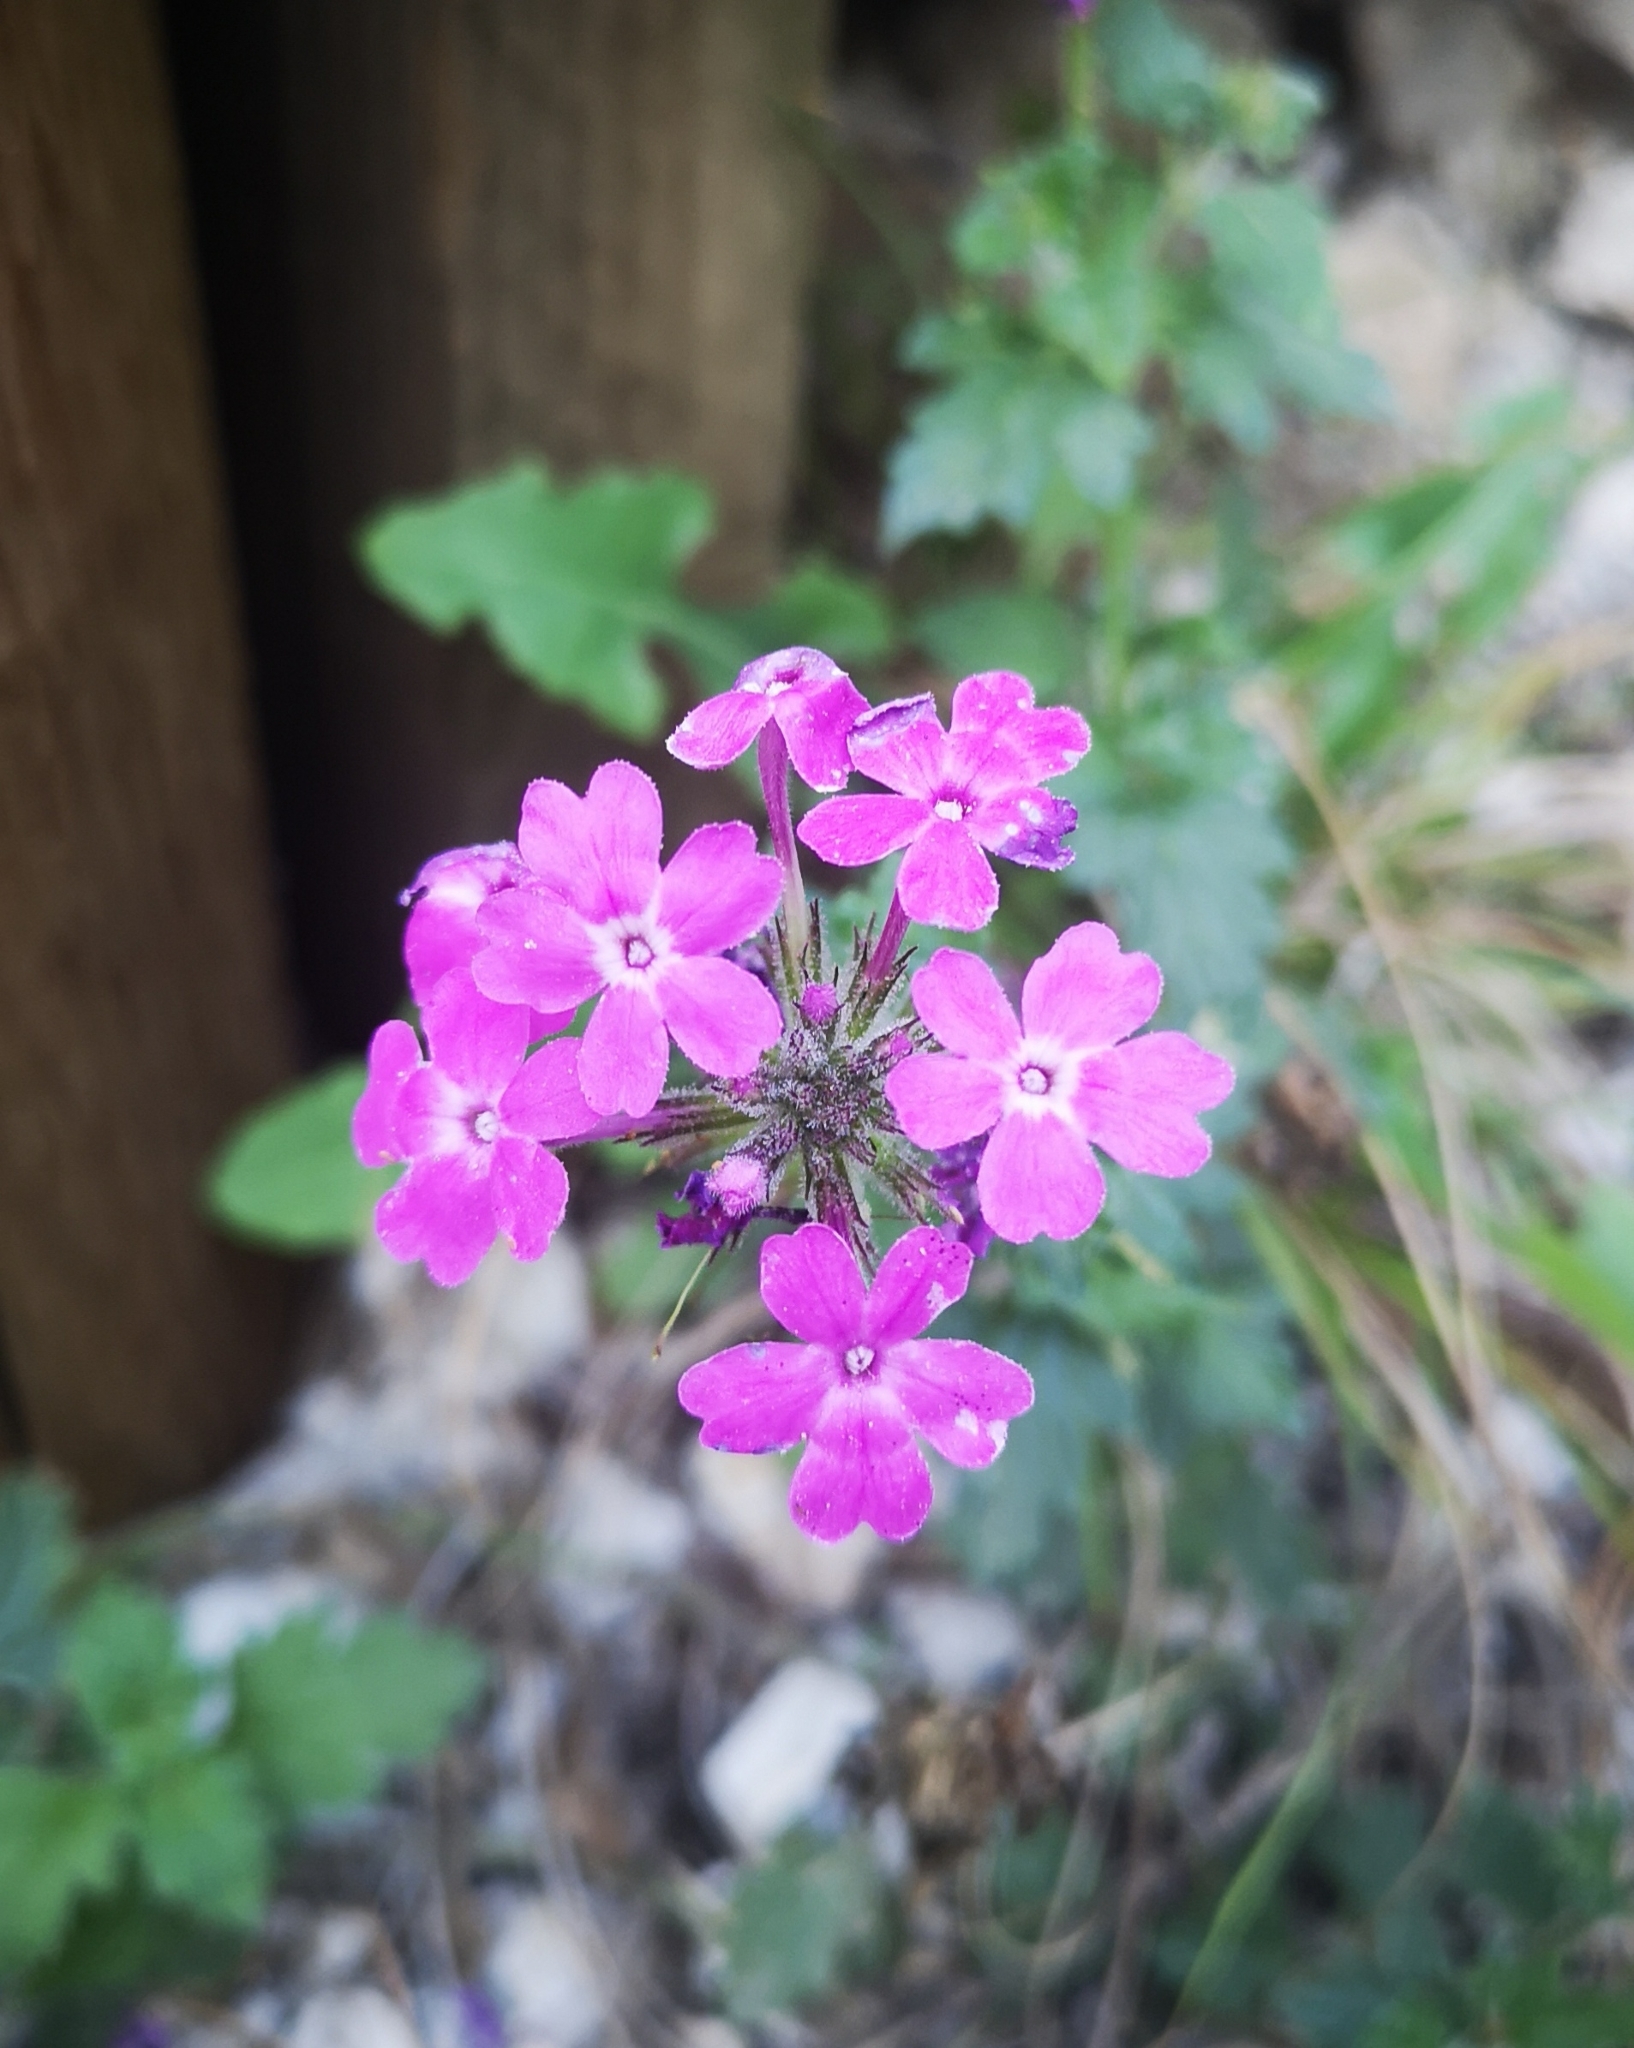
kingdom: Plantae
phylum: Tracheophyta
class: Magnoliopsida
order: Lamiales
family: Verbenaceae
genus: Verbena
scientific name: Verbena canadensis
